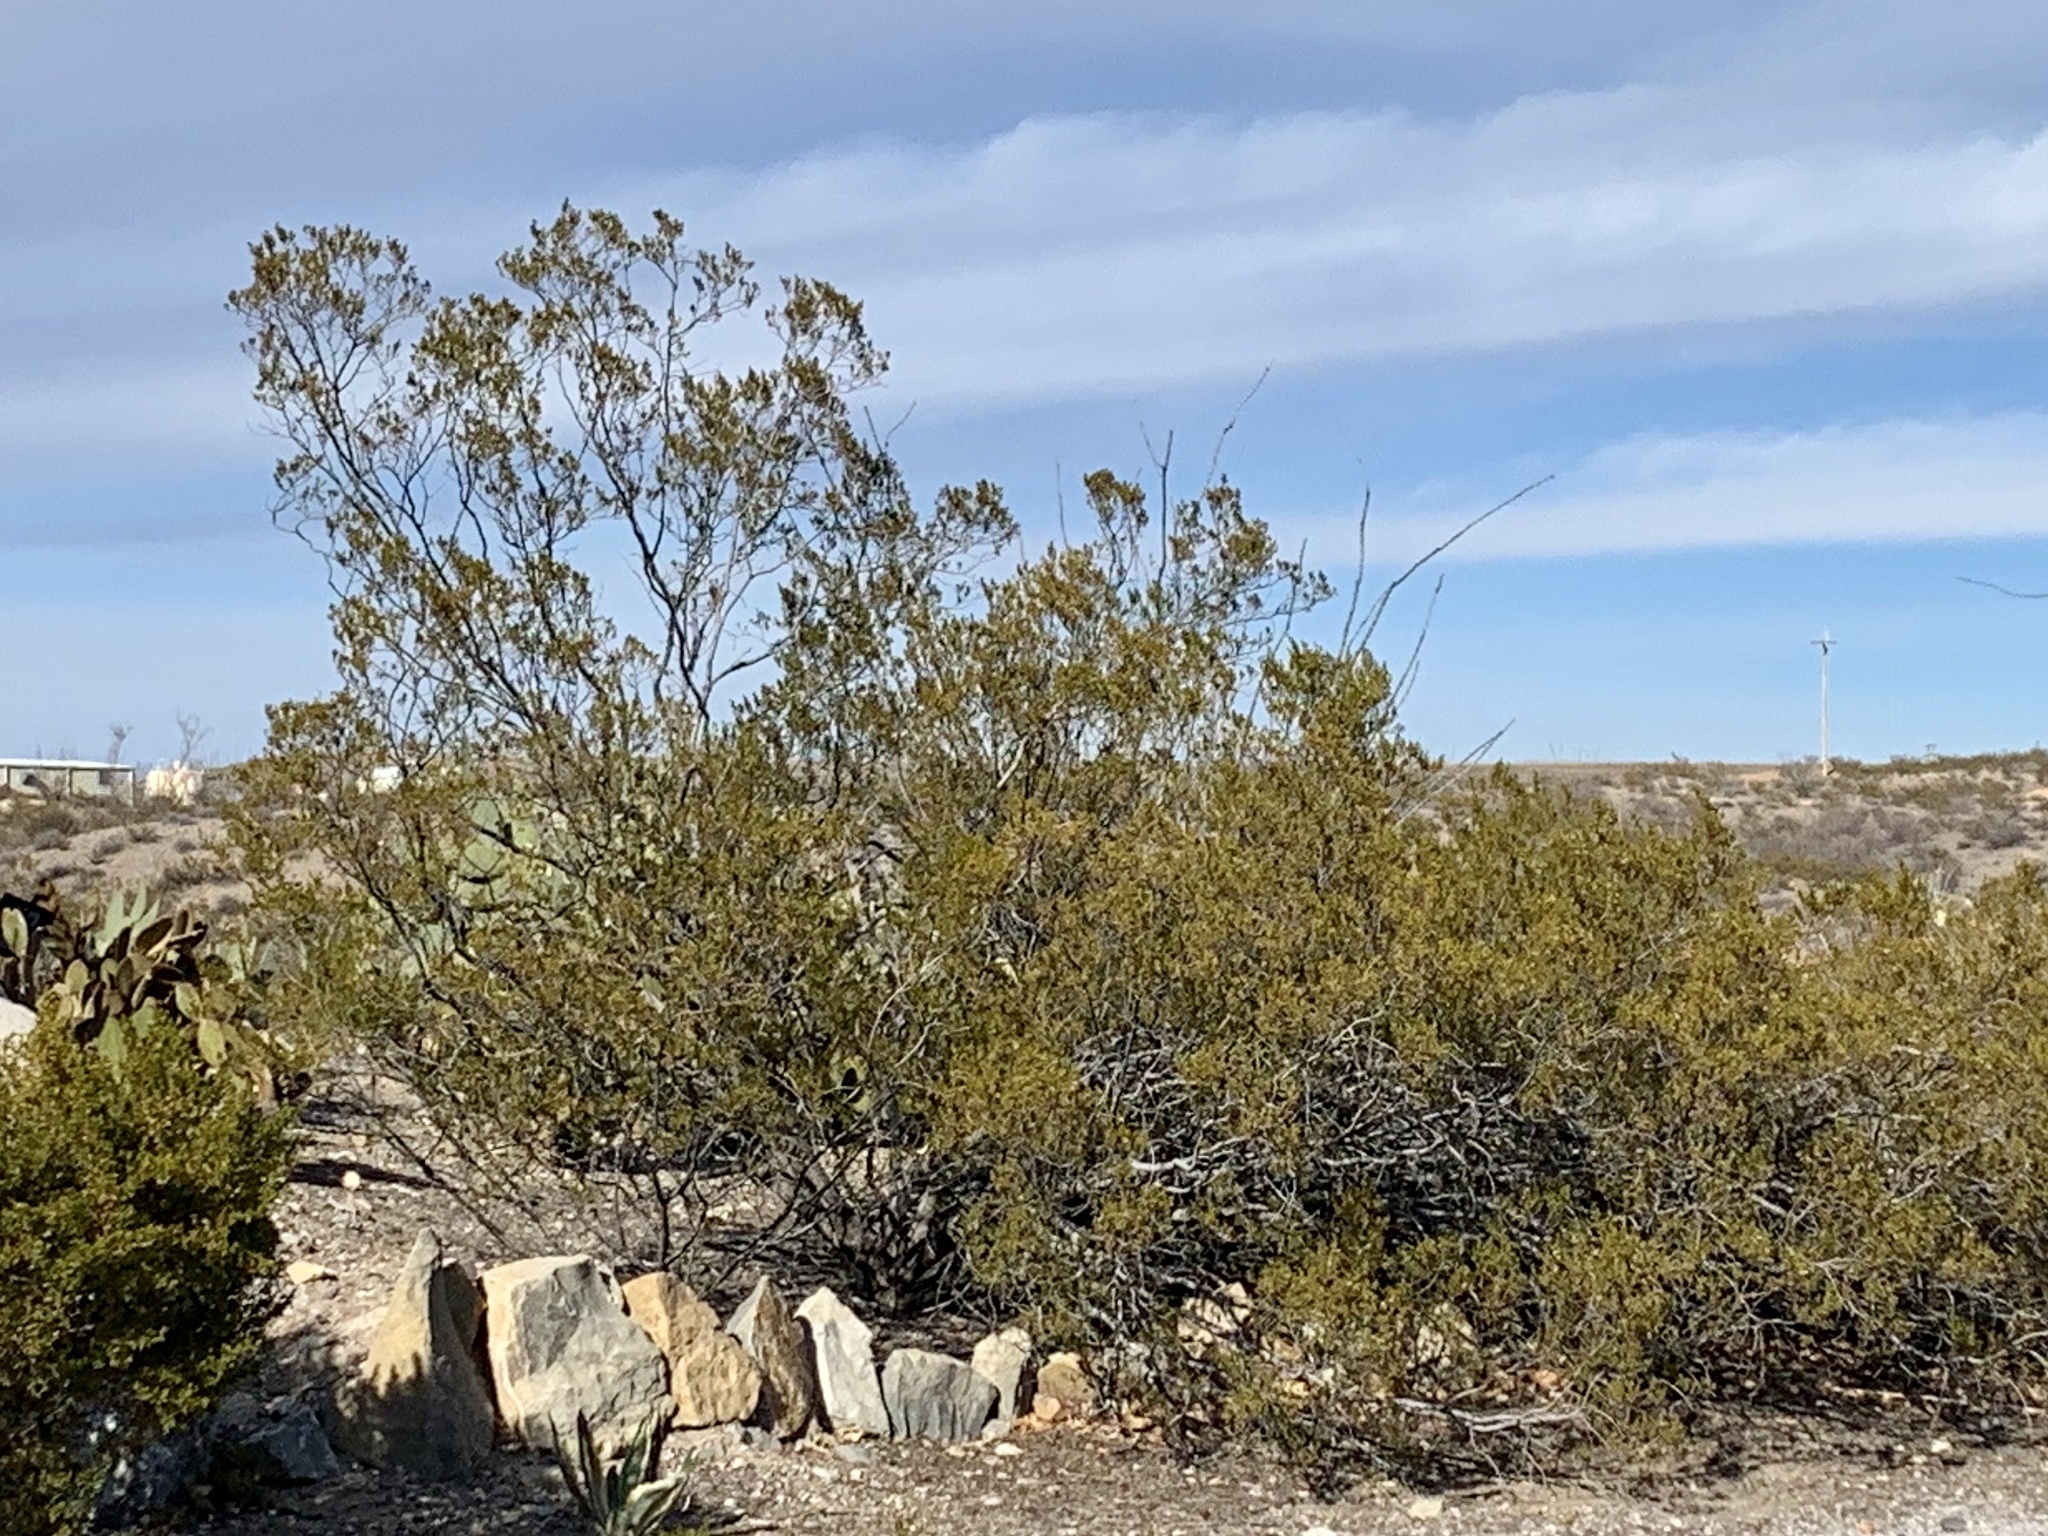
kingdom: Plantae
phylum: Tracheophyta
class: Magnoliopsida
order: Zygophyllales
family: Zygophyllaceae
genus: Larrea
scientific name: Larrea tridentata
